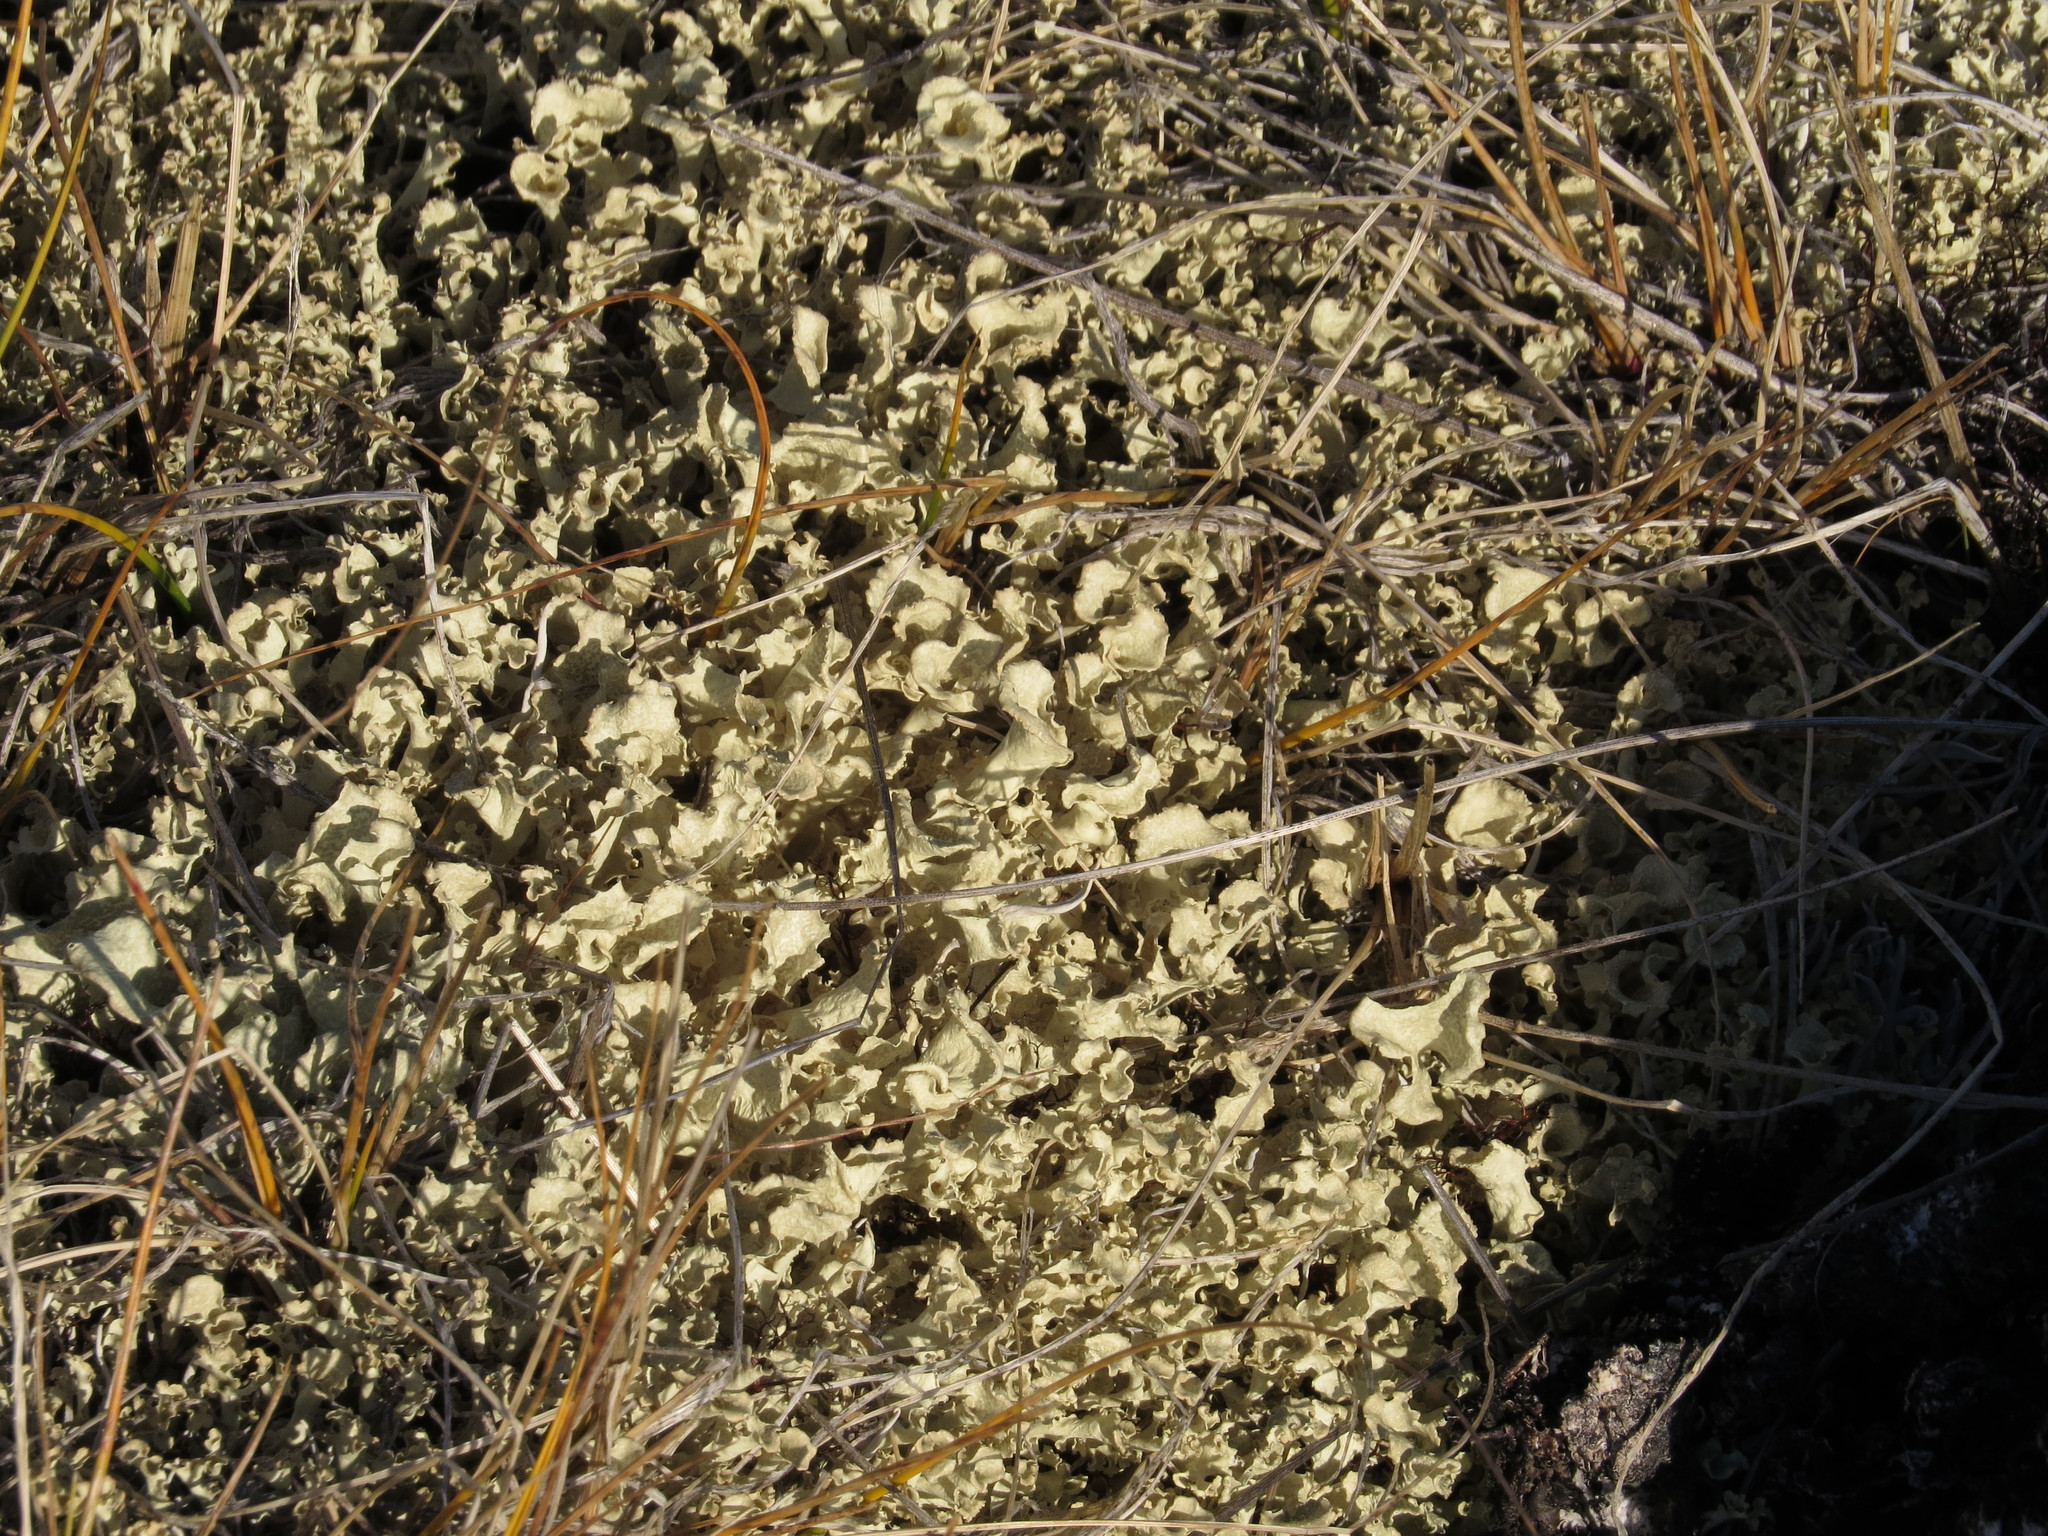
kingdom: Fungi
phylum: Ascomycota
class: Lecanoromycetes
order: Lecanorales
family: Parmeliaceae
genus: Nephromopsis
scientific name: Nephromopsis nivalis
